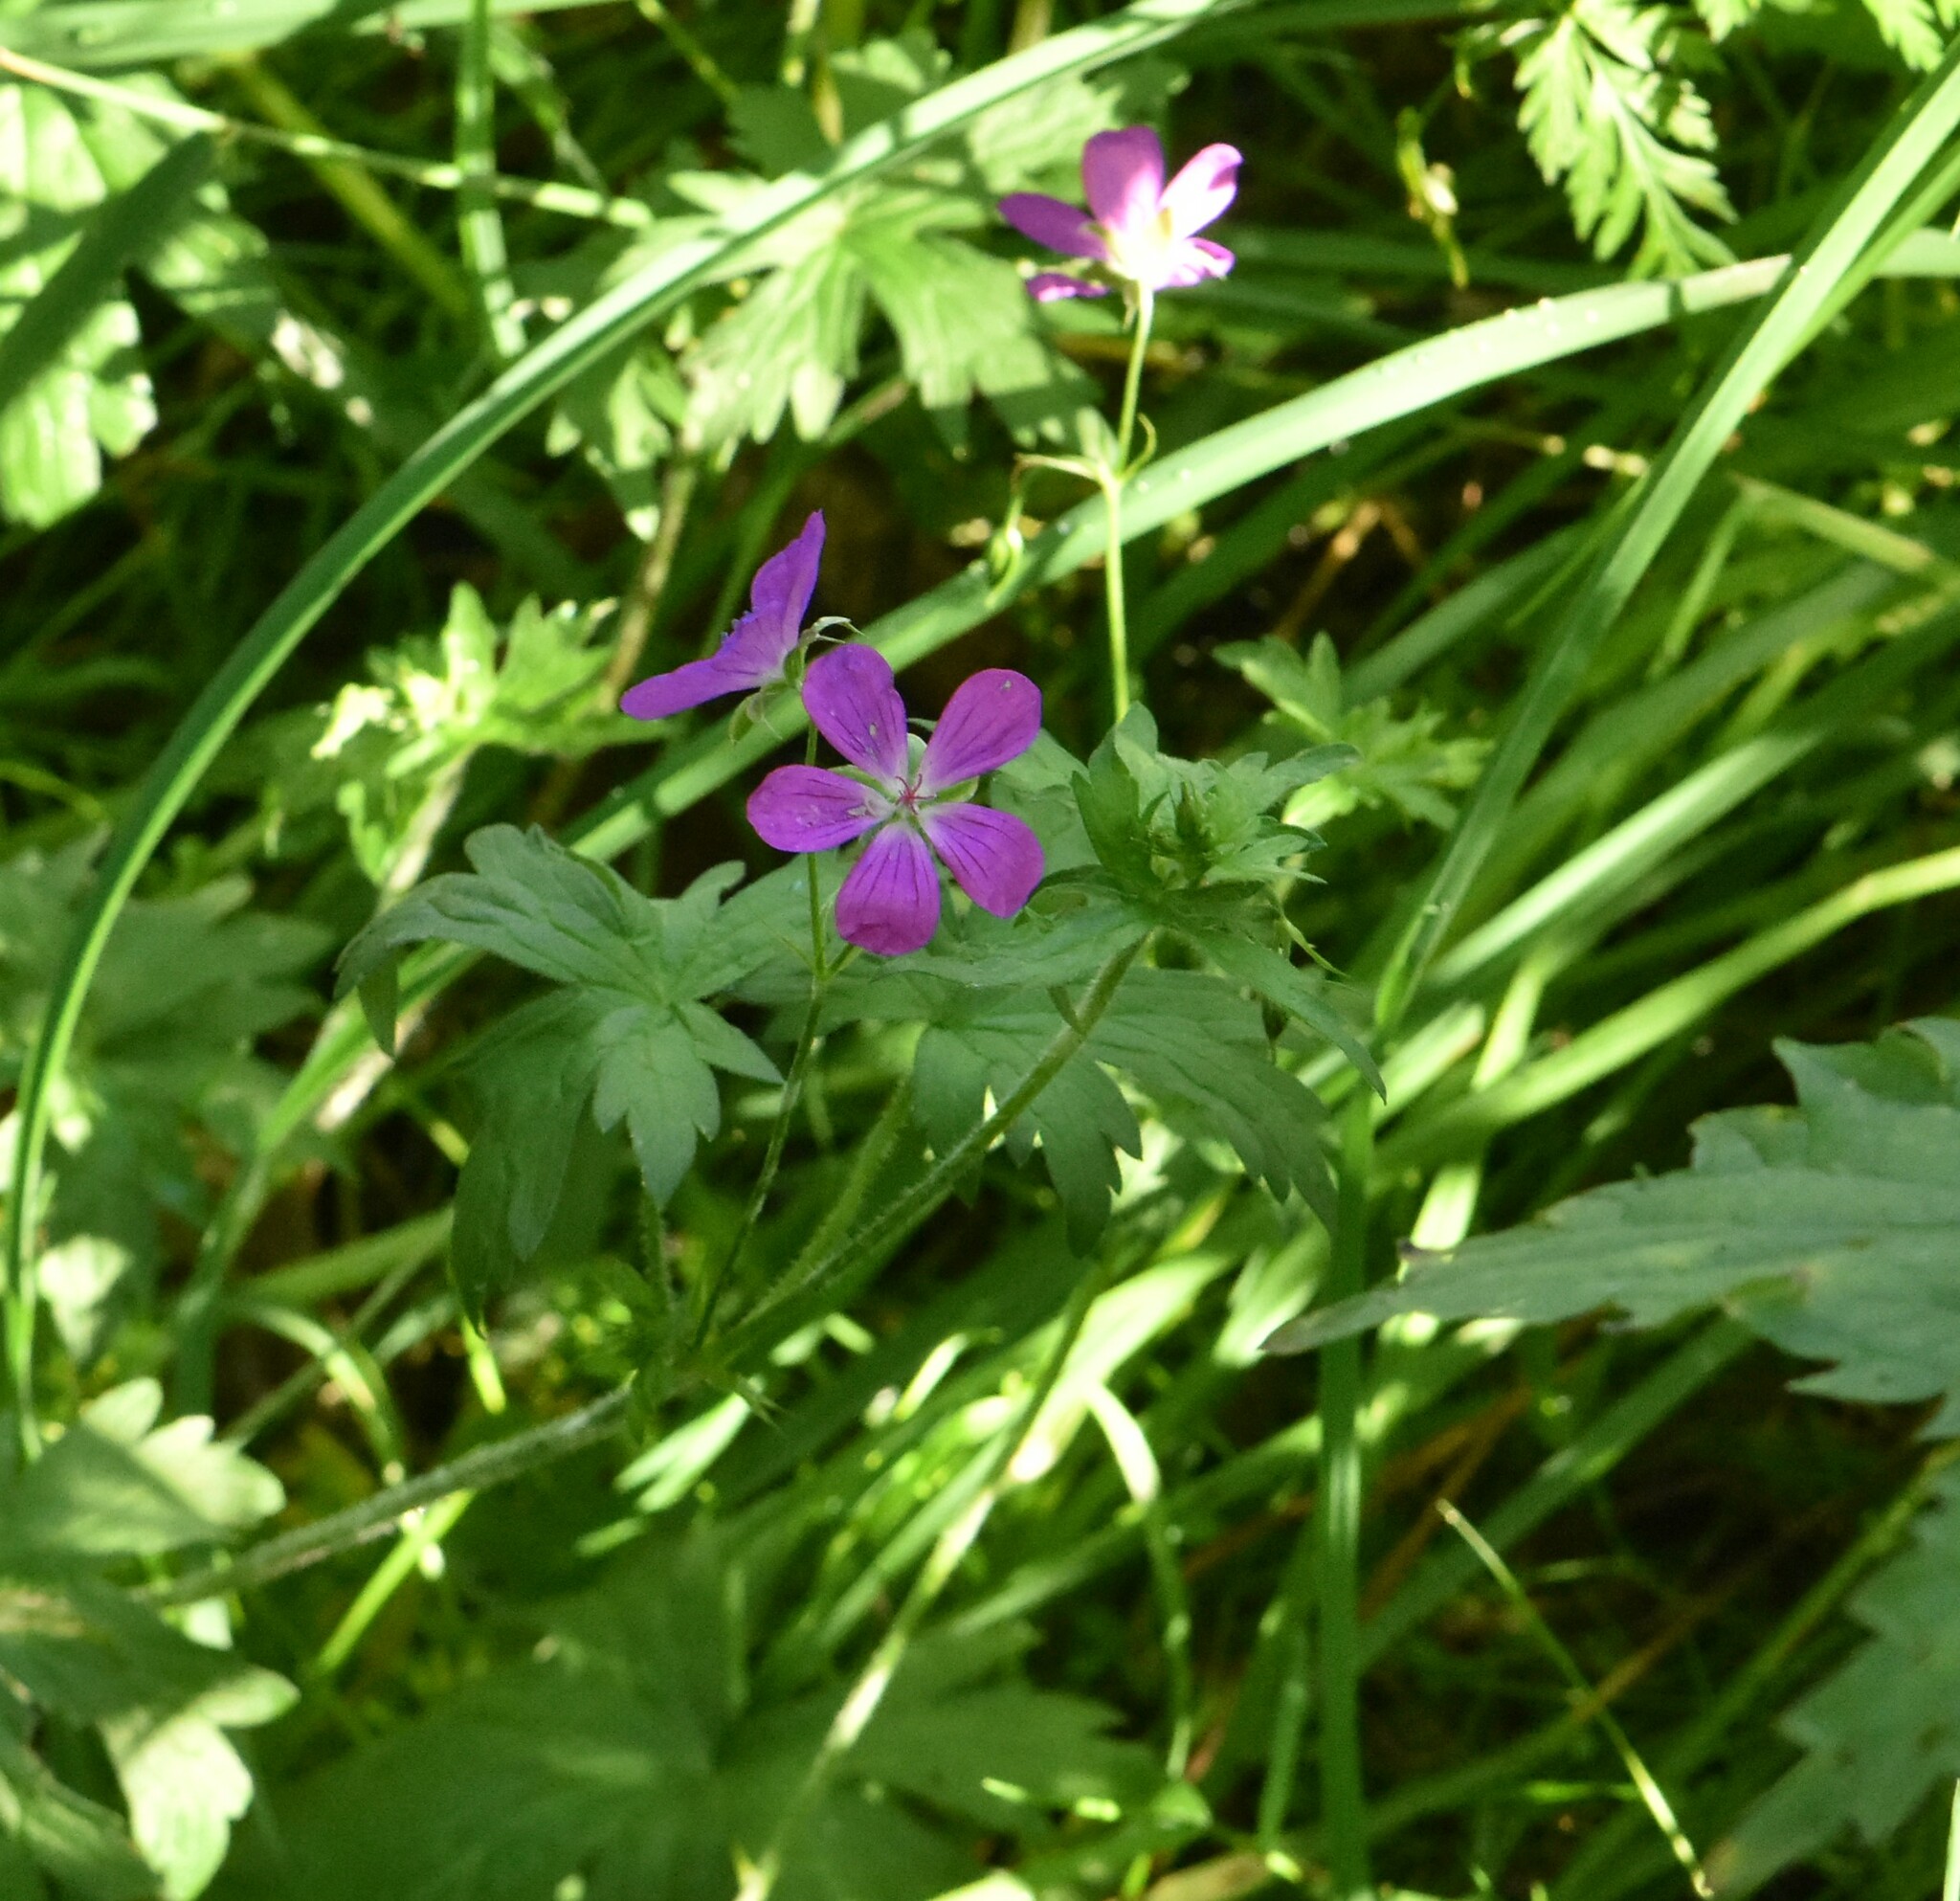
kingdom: Plantae
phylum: Tracheophyta
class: Magnoliopsida
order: Geraniales
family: Geraniaceae
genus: Geranium
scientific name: Geranium palustre
